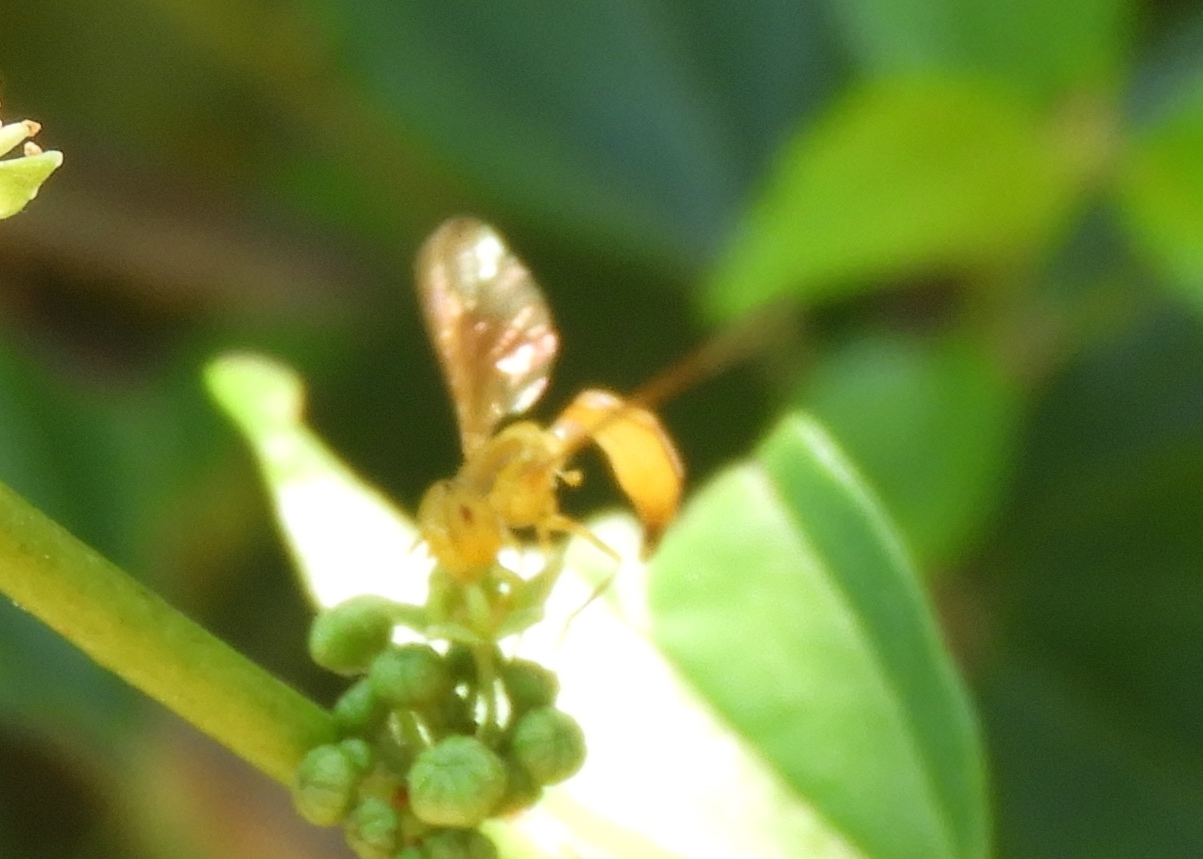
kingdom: Animalia
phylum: Arthropoda
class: Insecta
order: Diptera
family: Syrphidae
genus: Hybobathus
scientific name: Hybobathus
